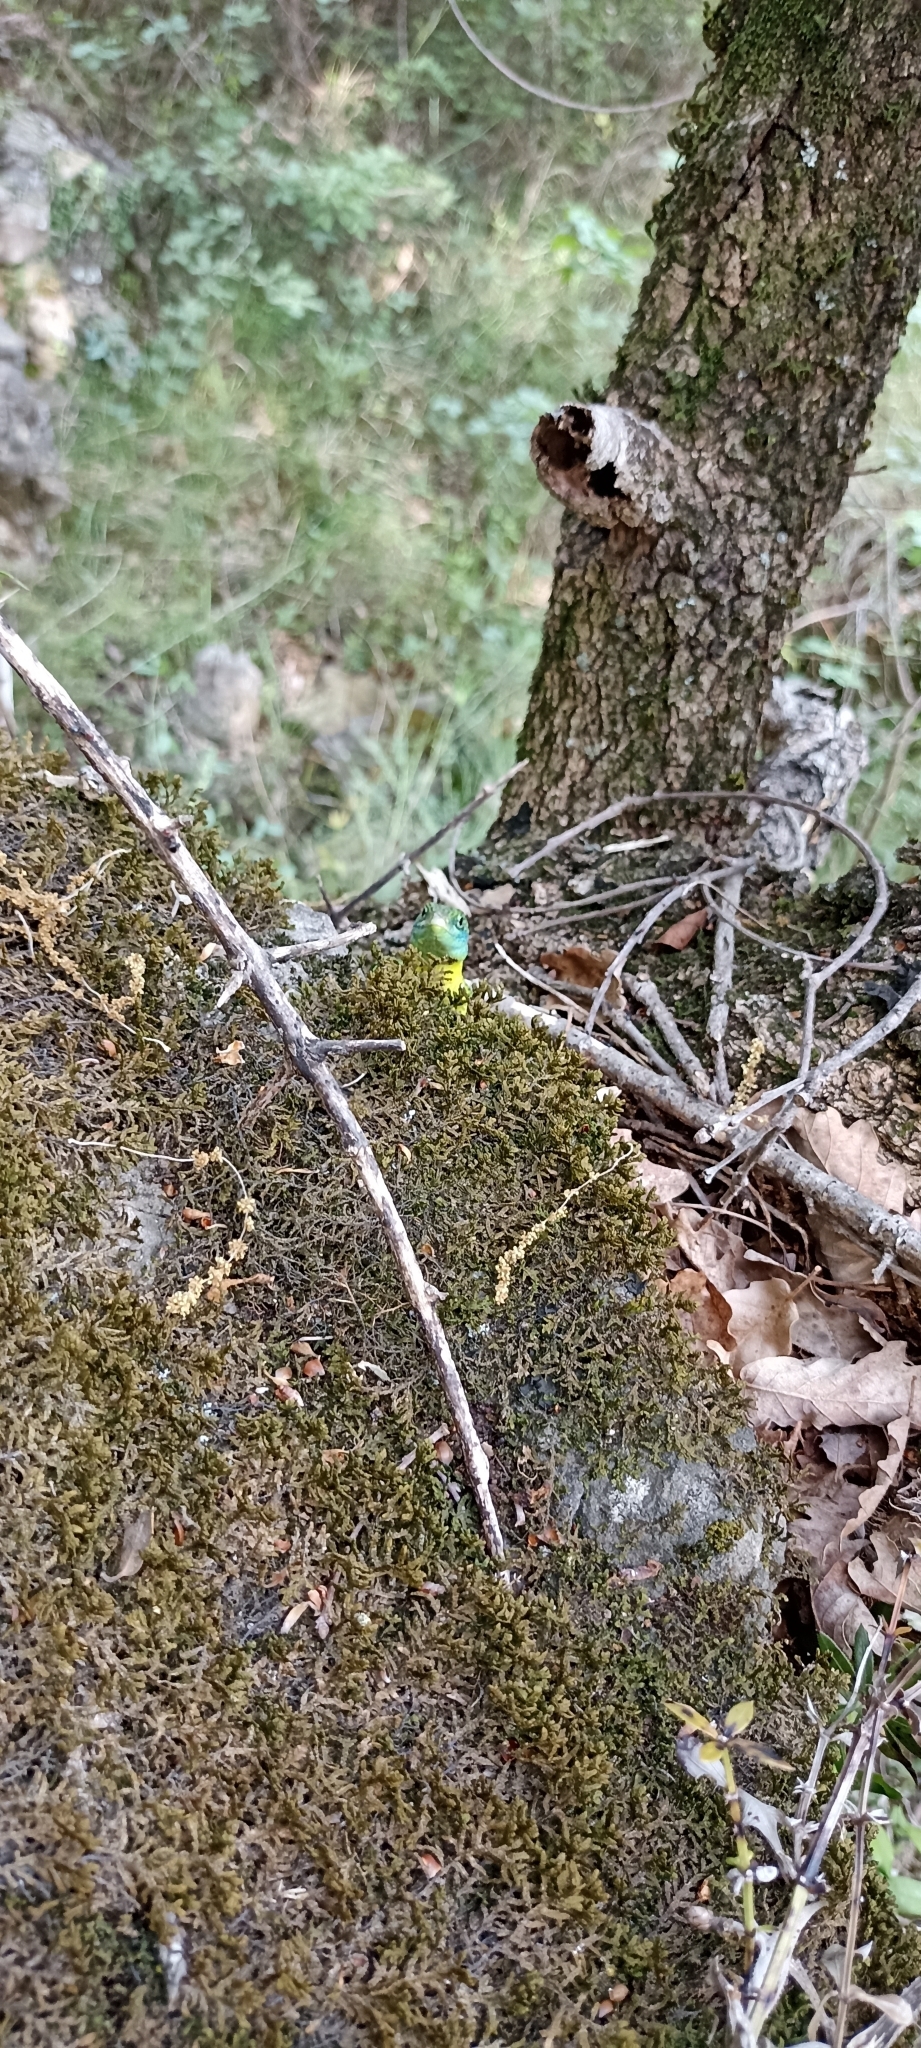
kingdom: Animalia
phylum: Chordata
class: Squamata
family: Lacertidae
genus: Lacerta
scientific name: Lacerta bilineata
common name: Western green lizard
